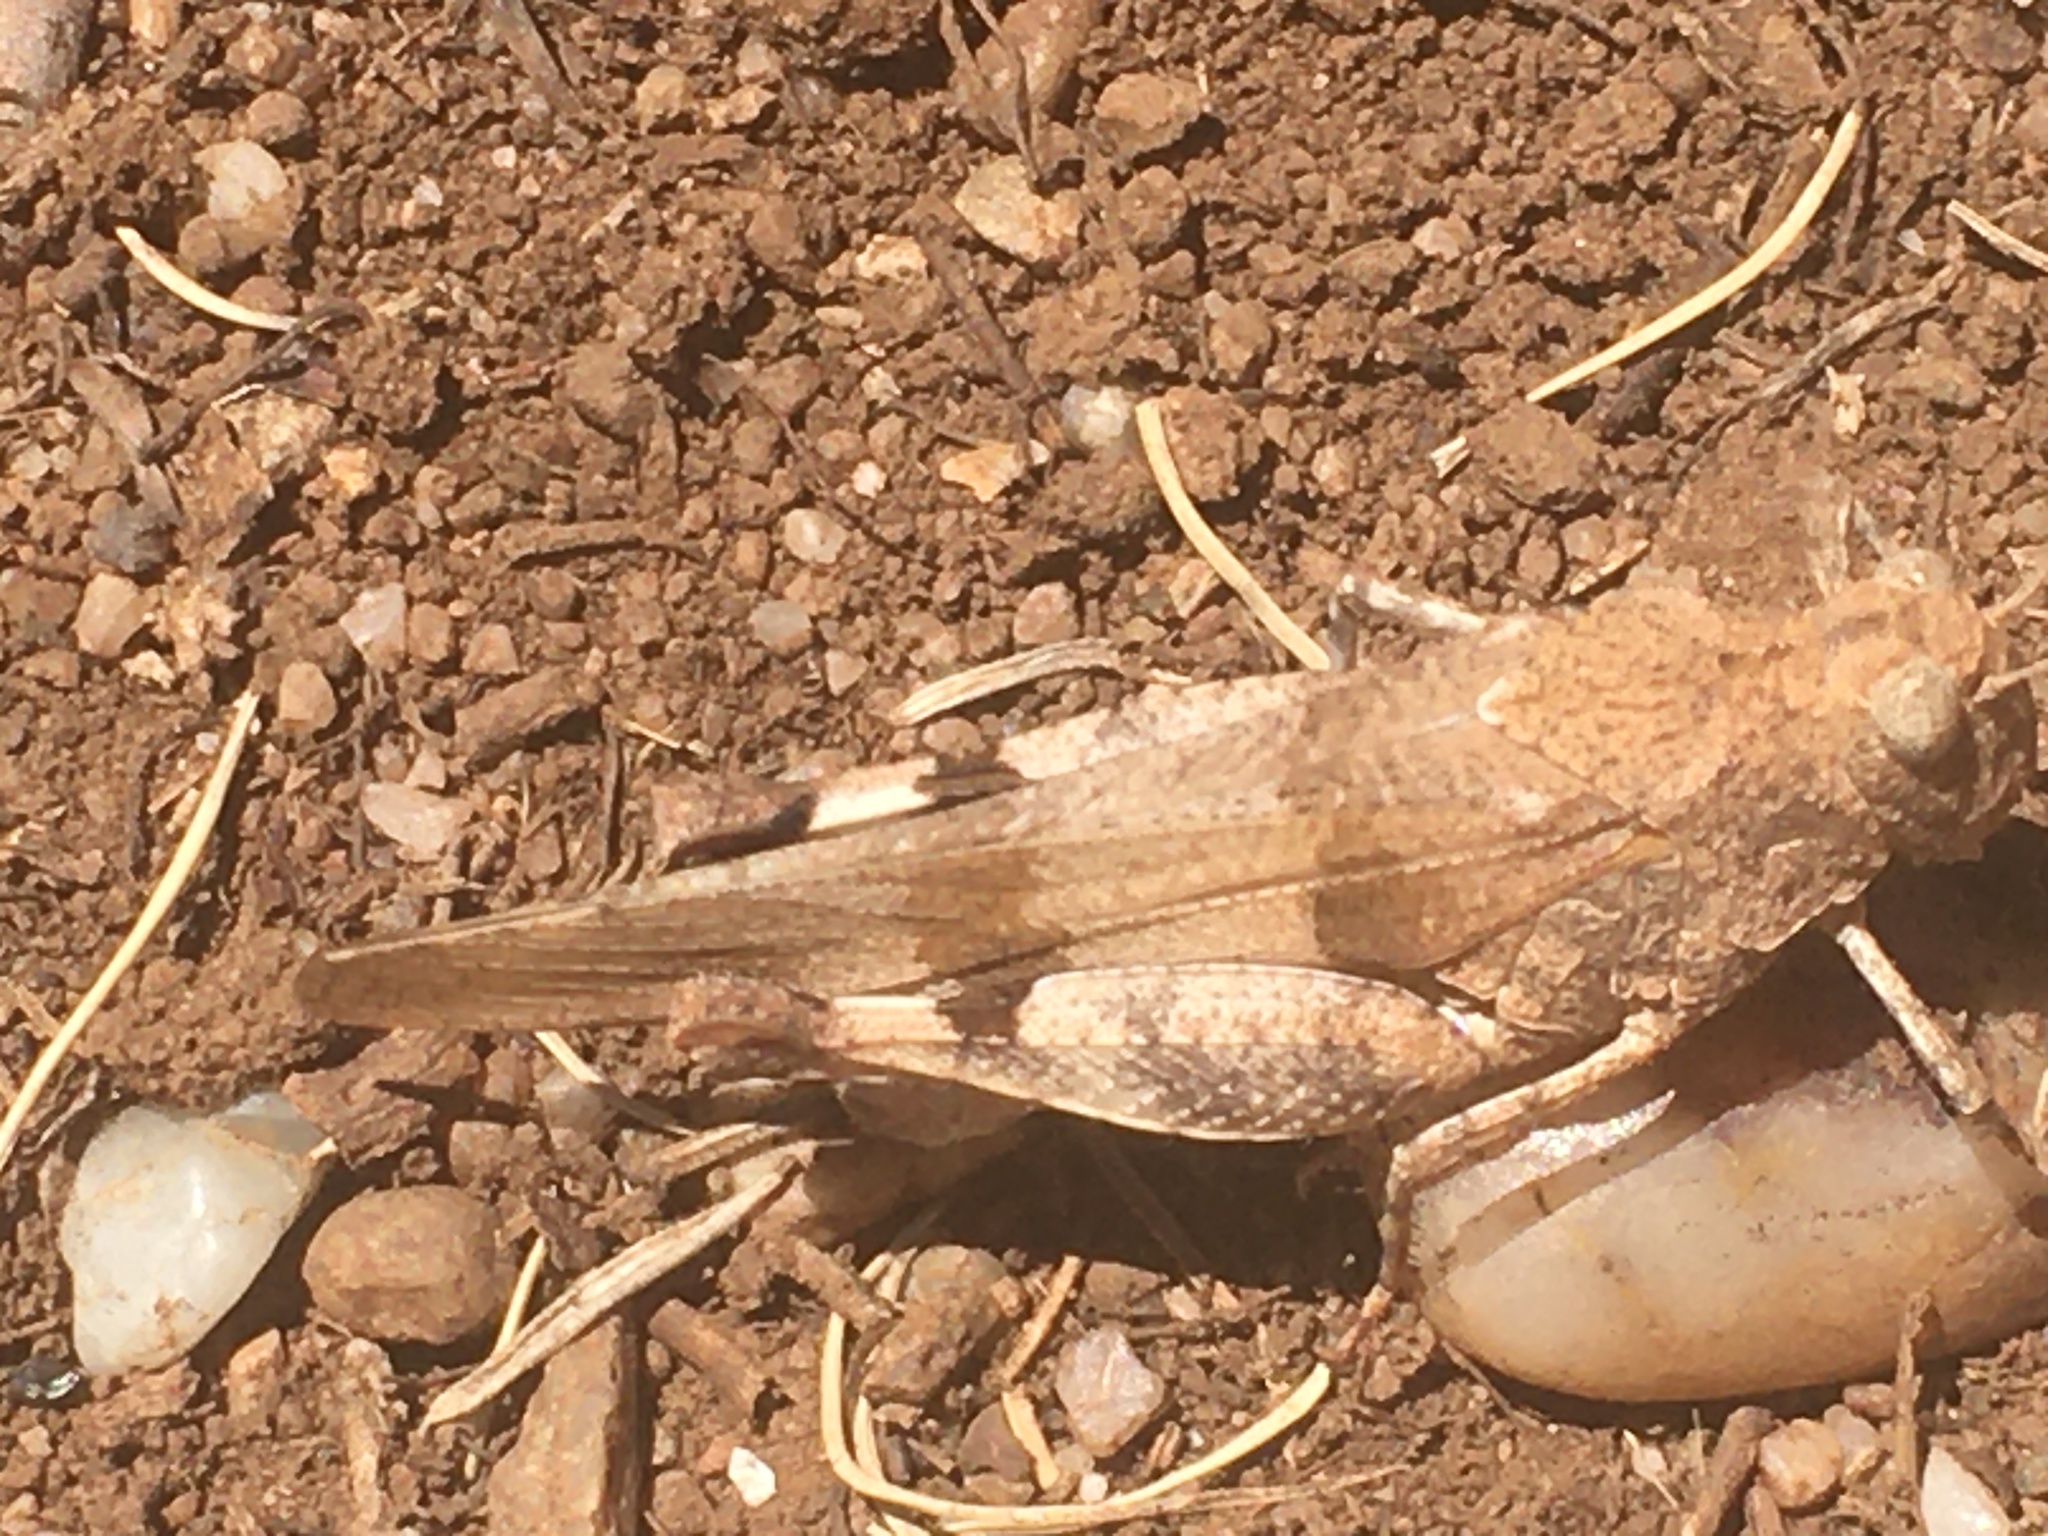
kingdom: Animalia
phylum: Arthropoda
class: Insecta
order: Orthoptera
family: Acrididae
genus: Oedipoda
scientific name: Oedipoda caerulescens
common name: Blue-winged grasshopper
